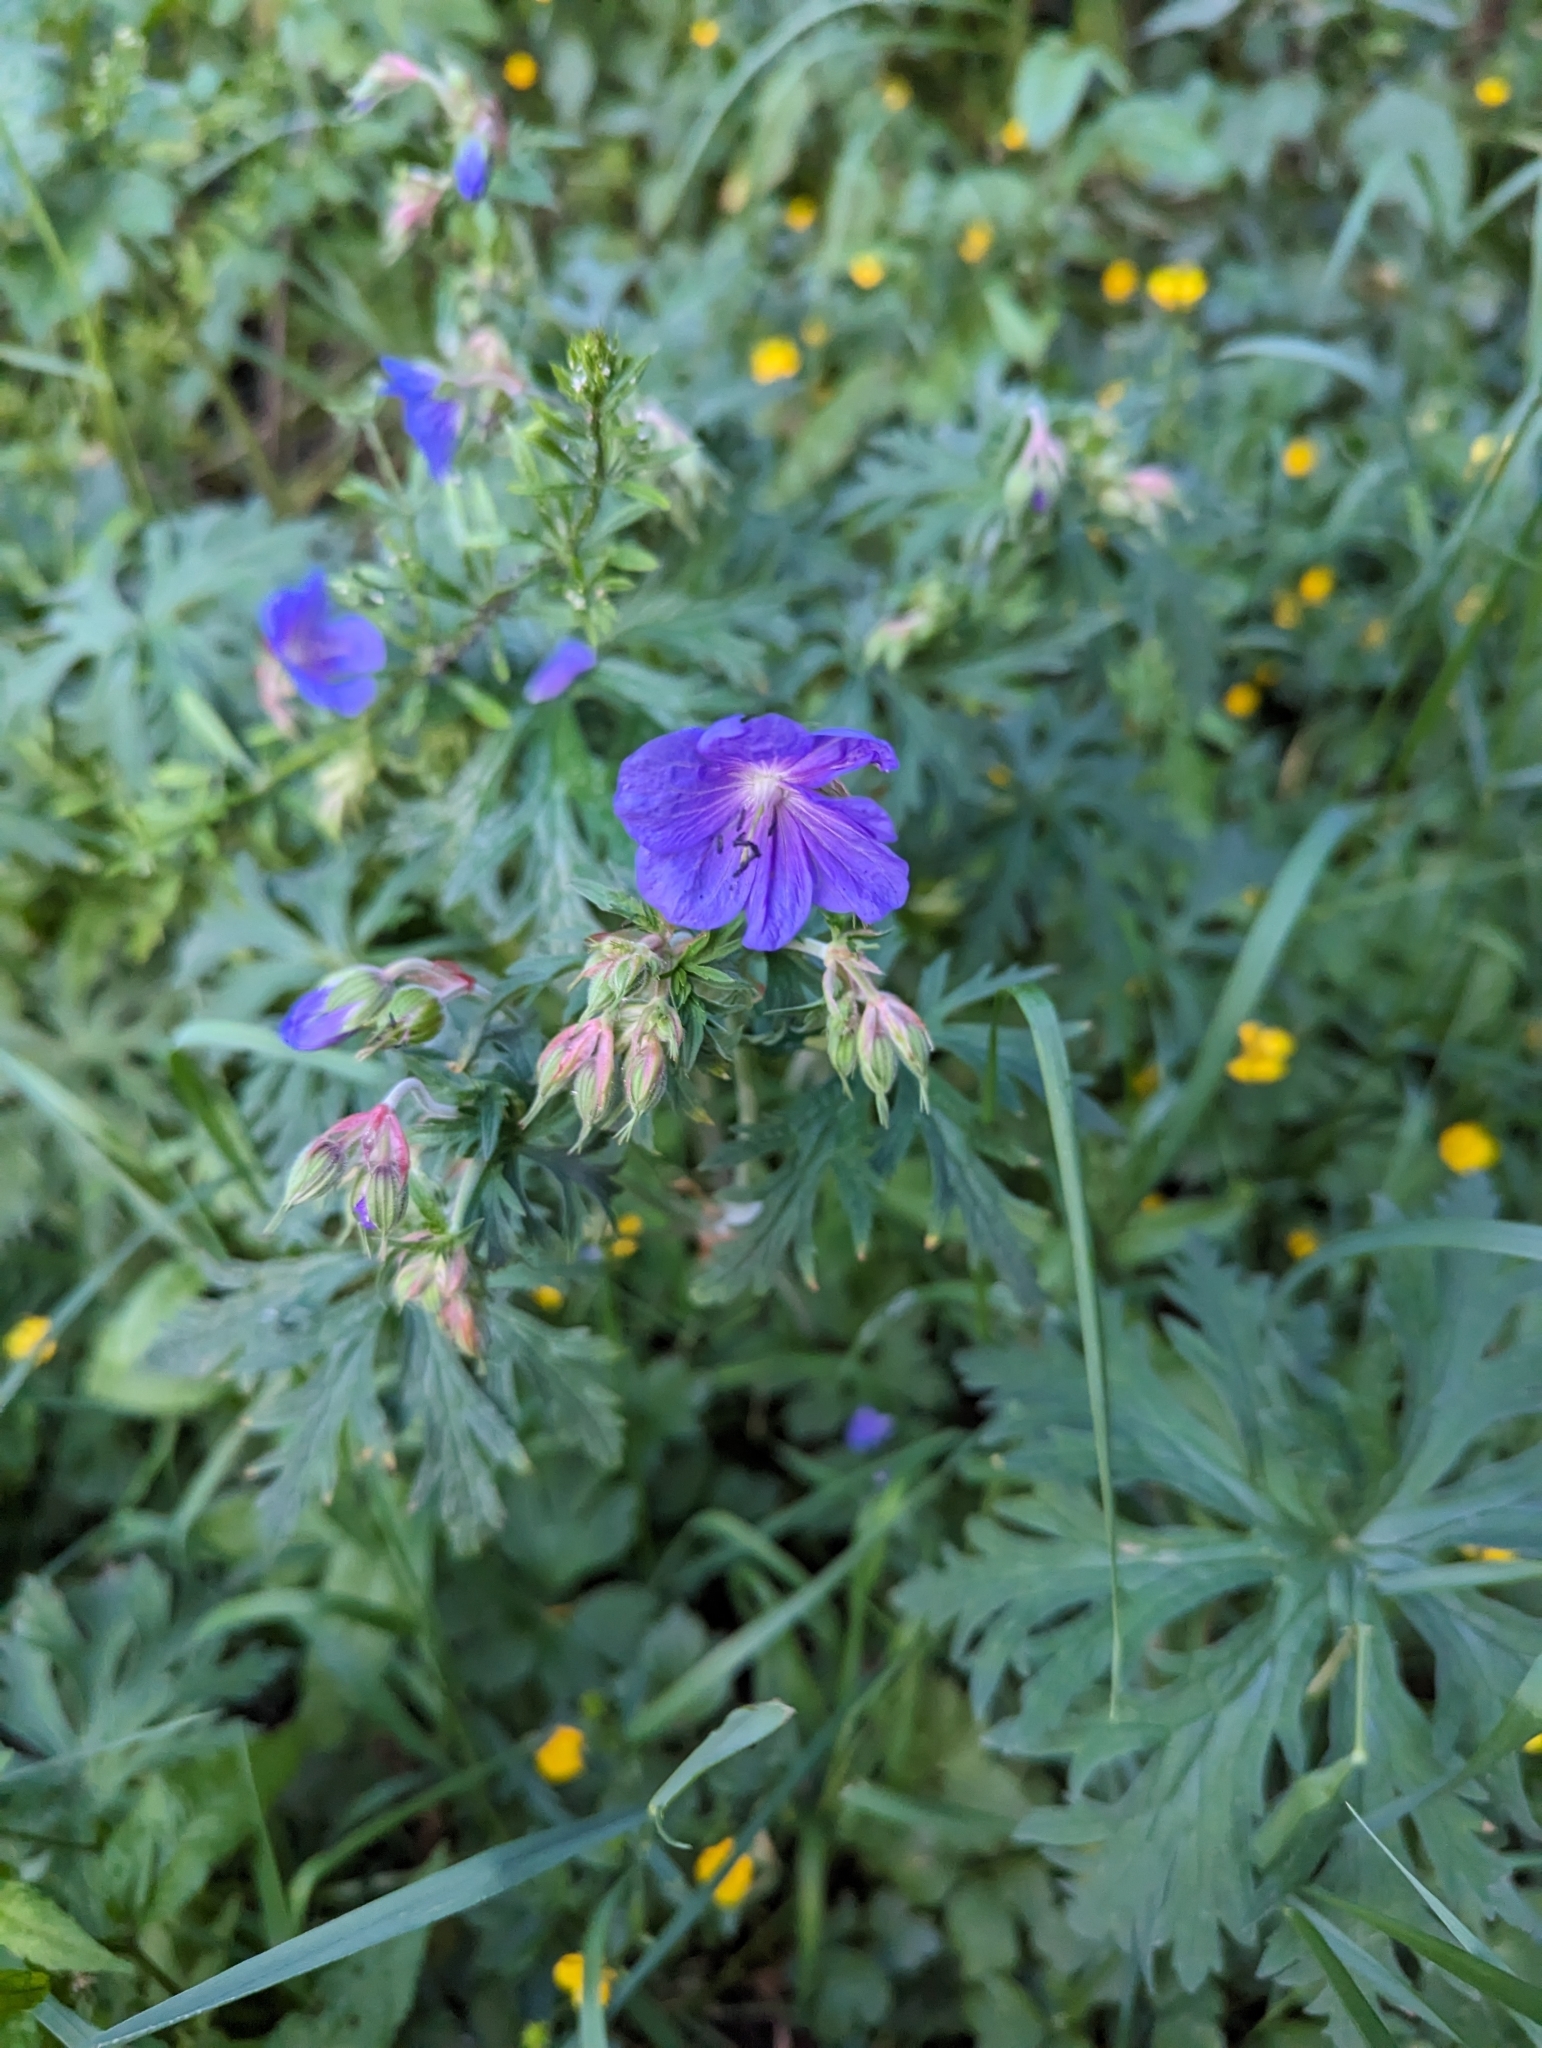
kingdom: Plantae
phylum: Tracheophyta
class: Magnoliopsida
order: Geraniales
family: Geraniaceae
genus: Geranium
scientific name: Geranium pratense
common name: Meadow crane's-bill
